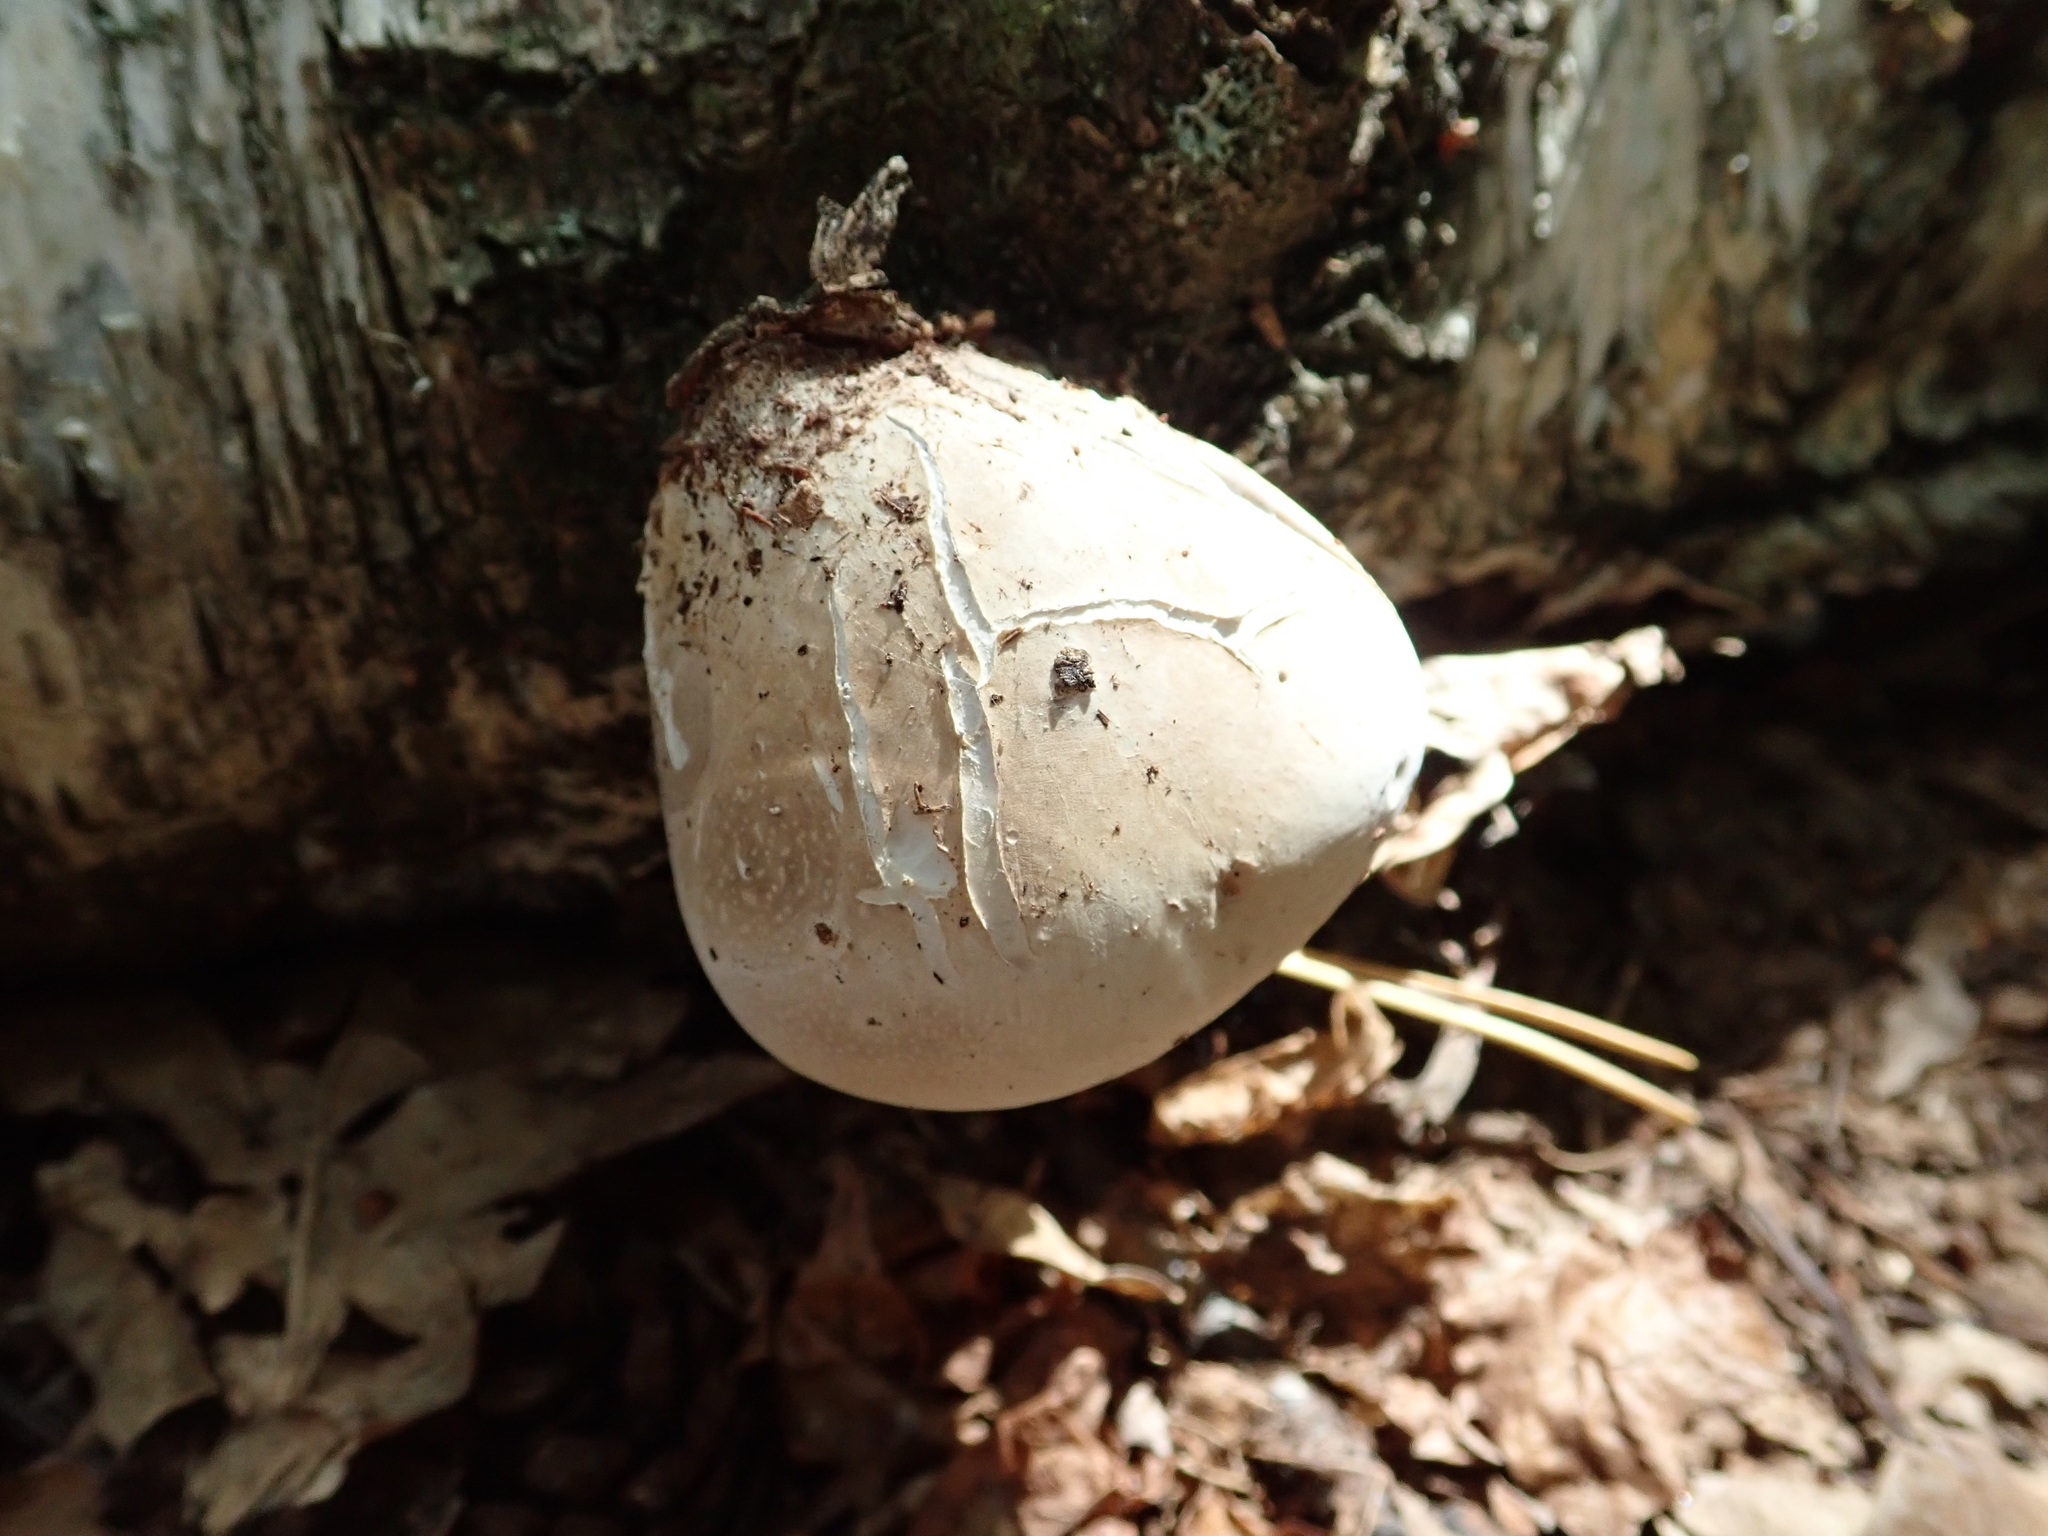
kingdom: Fungi
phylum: Basidiomycota
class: Agaricomycetes
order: Polyporales
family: Fomitopsidaceae
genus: Fomitopsis
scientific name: Fomitopsis betulina
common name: Birch polypore
